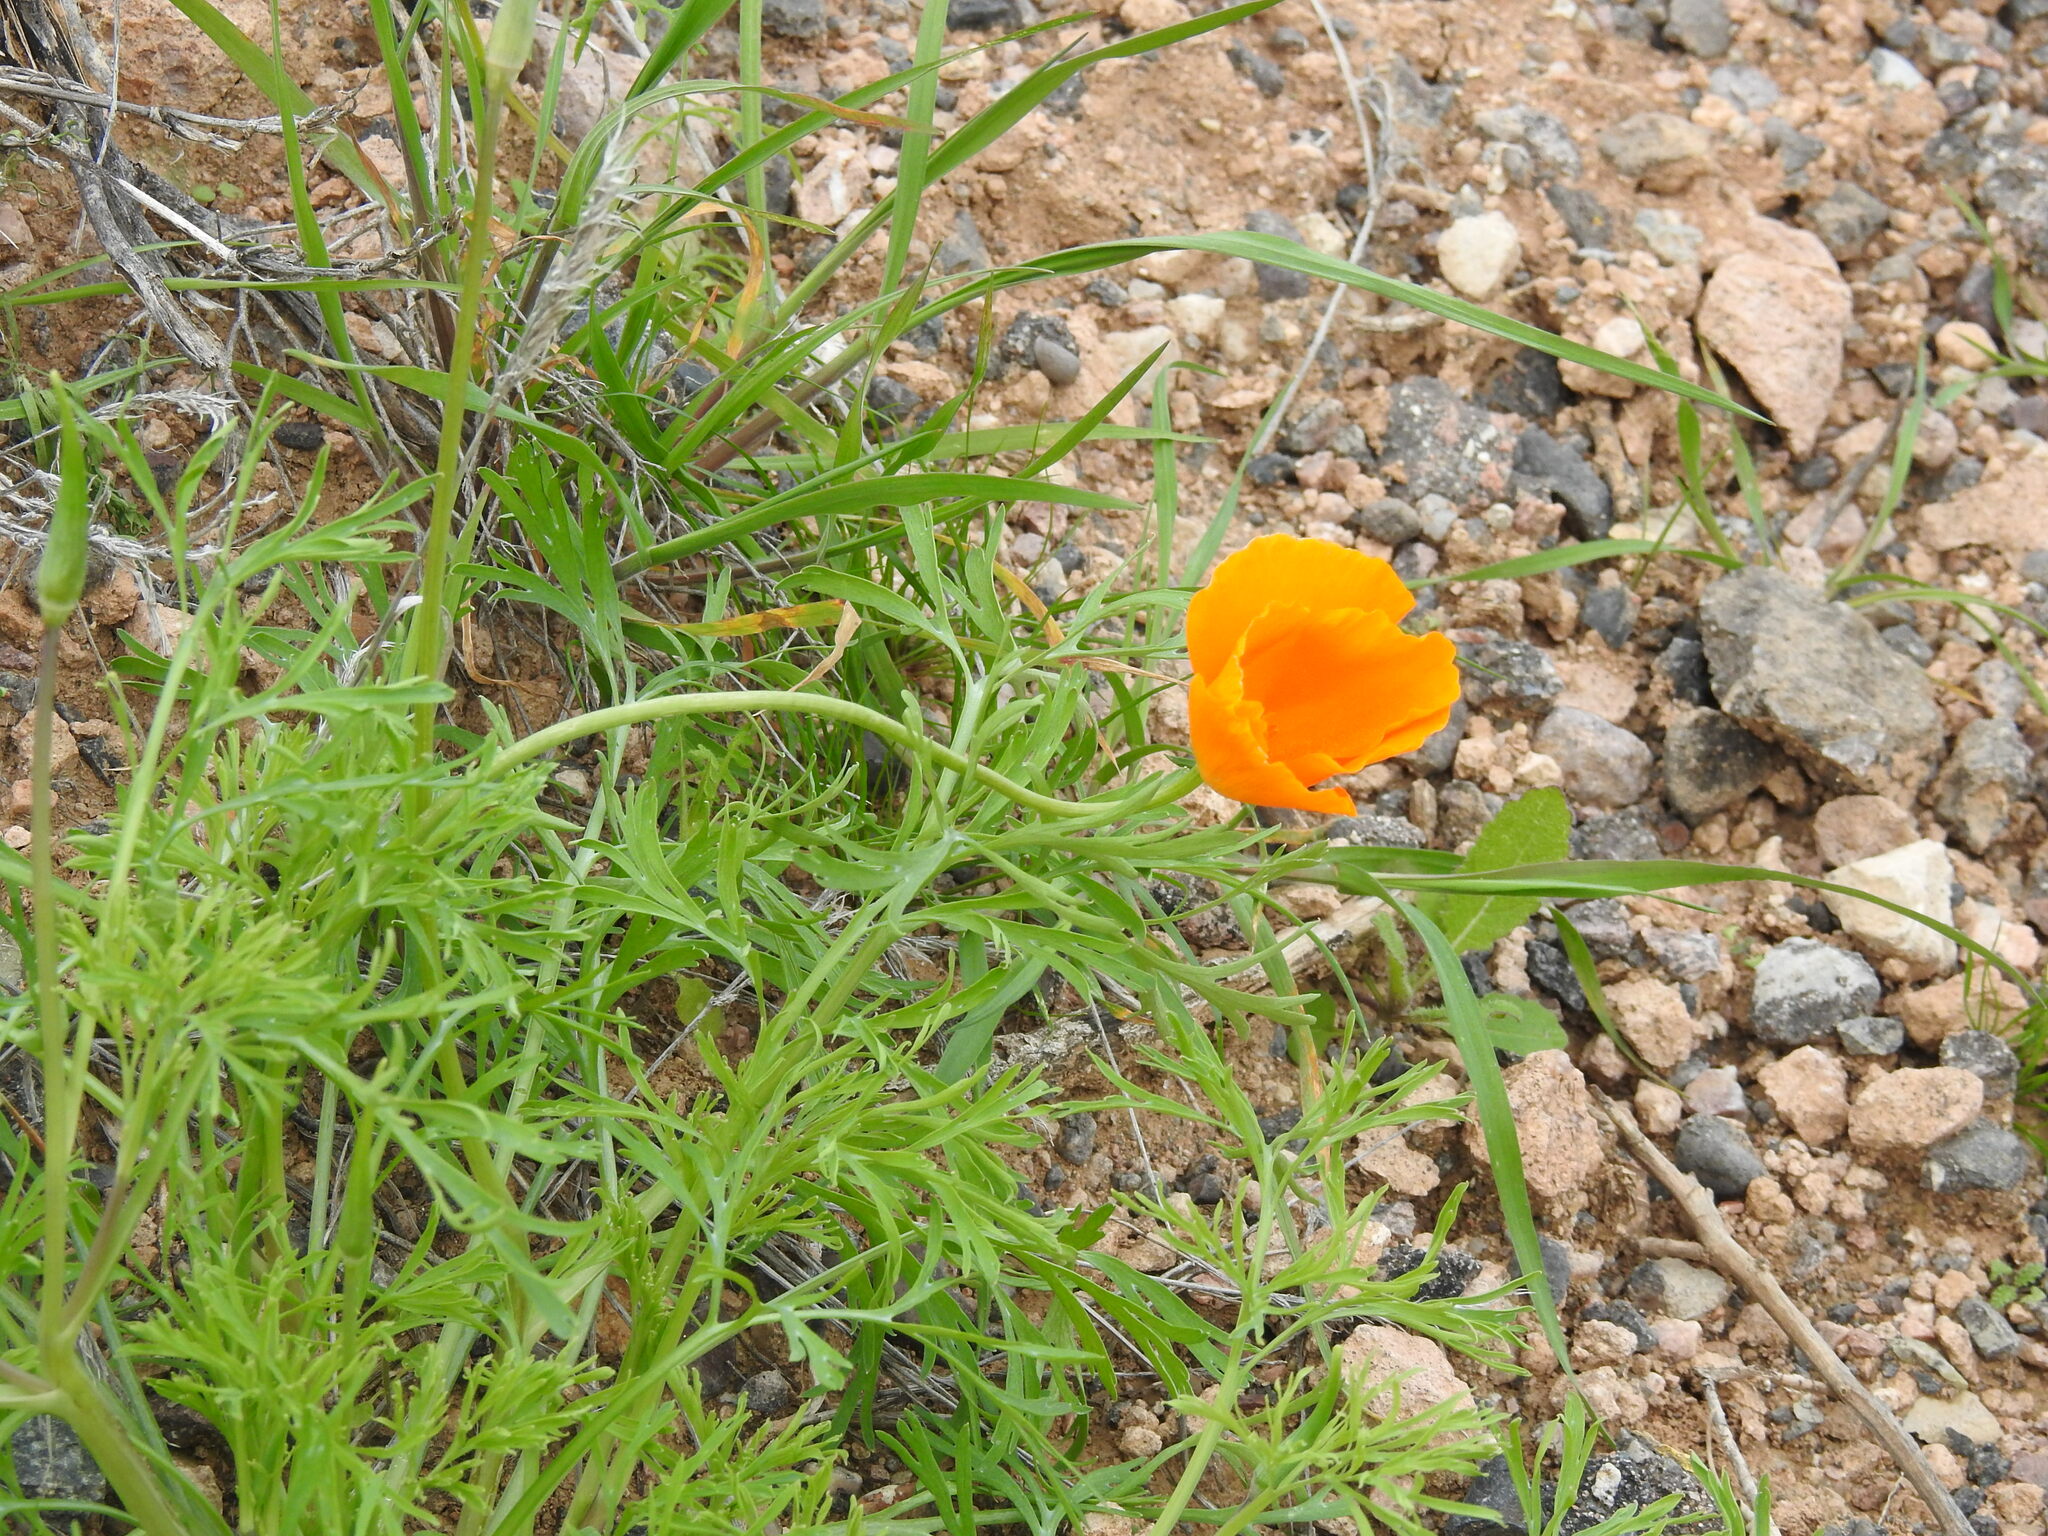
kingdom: Plantae
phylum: Tracheophyta
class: Magnoliopsida
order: Ranunculales
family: Papaveraceae
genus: Eschscholzia
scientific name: Eschscholzia californica
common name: California poppy
